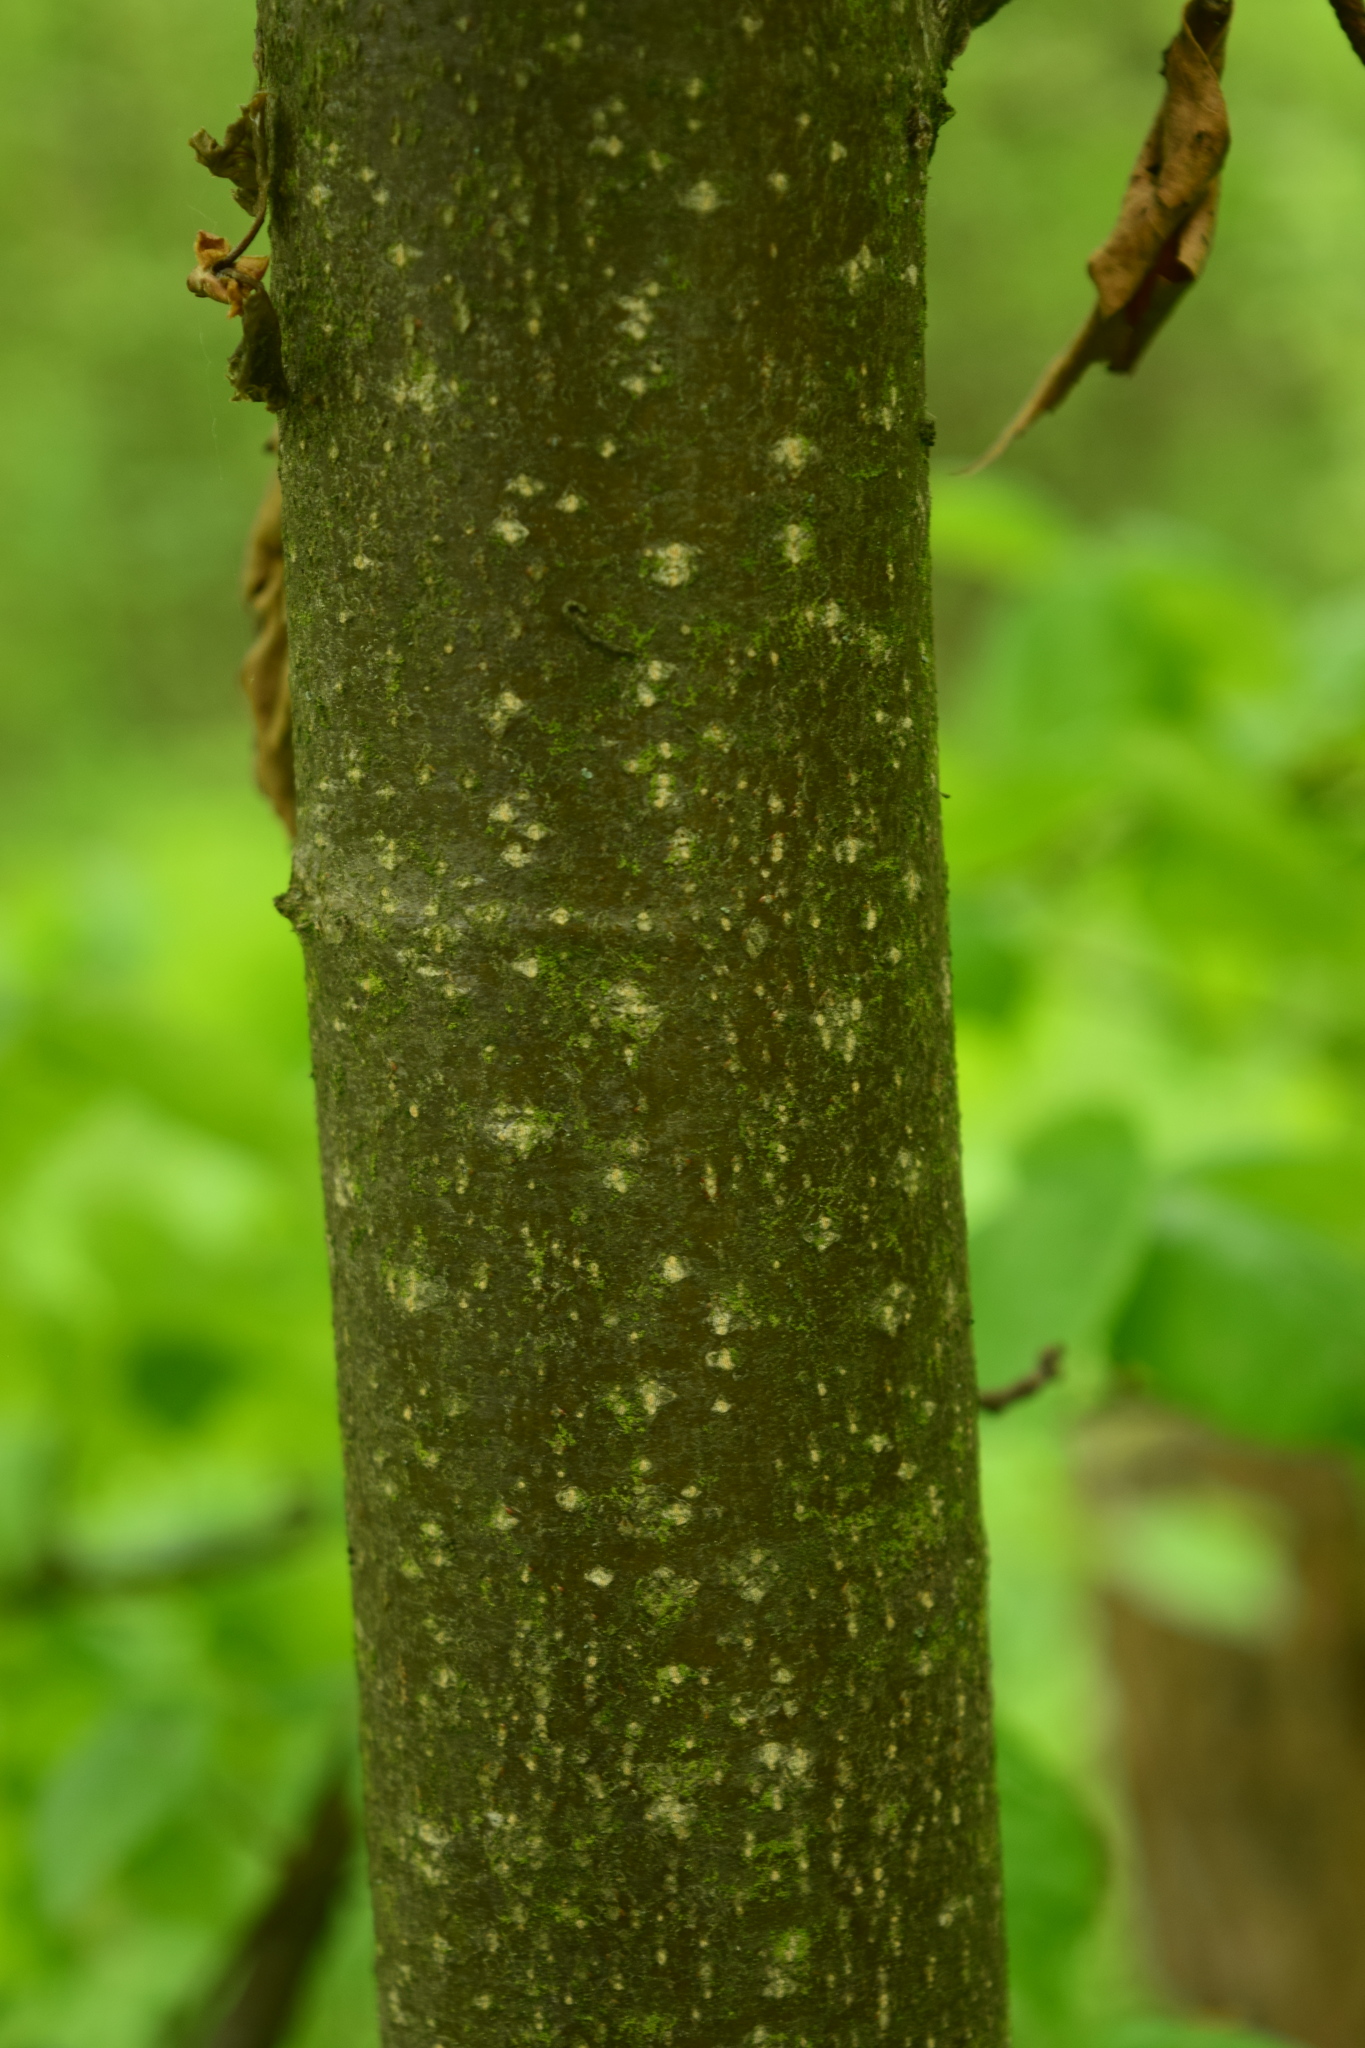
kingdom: Plantae
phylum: Tracheophyta
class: Magnoliopsida
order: Malvales
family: Malvaceae
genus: Tilia
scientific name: Tilia cordata
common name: Small-leaved lime
